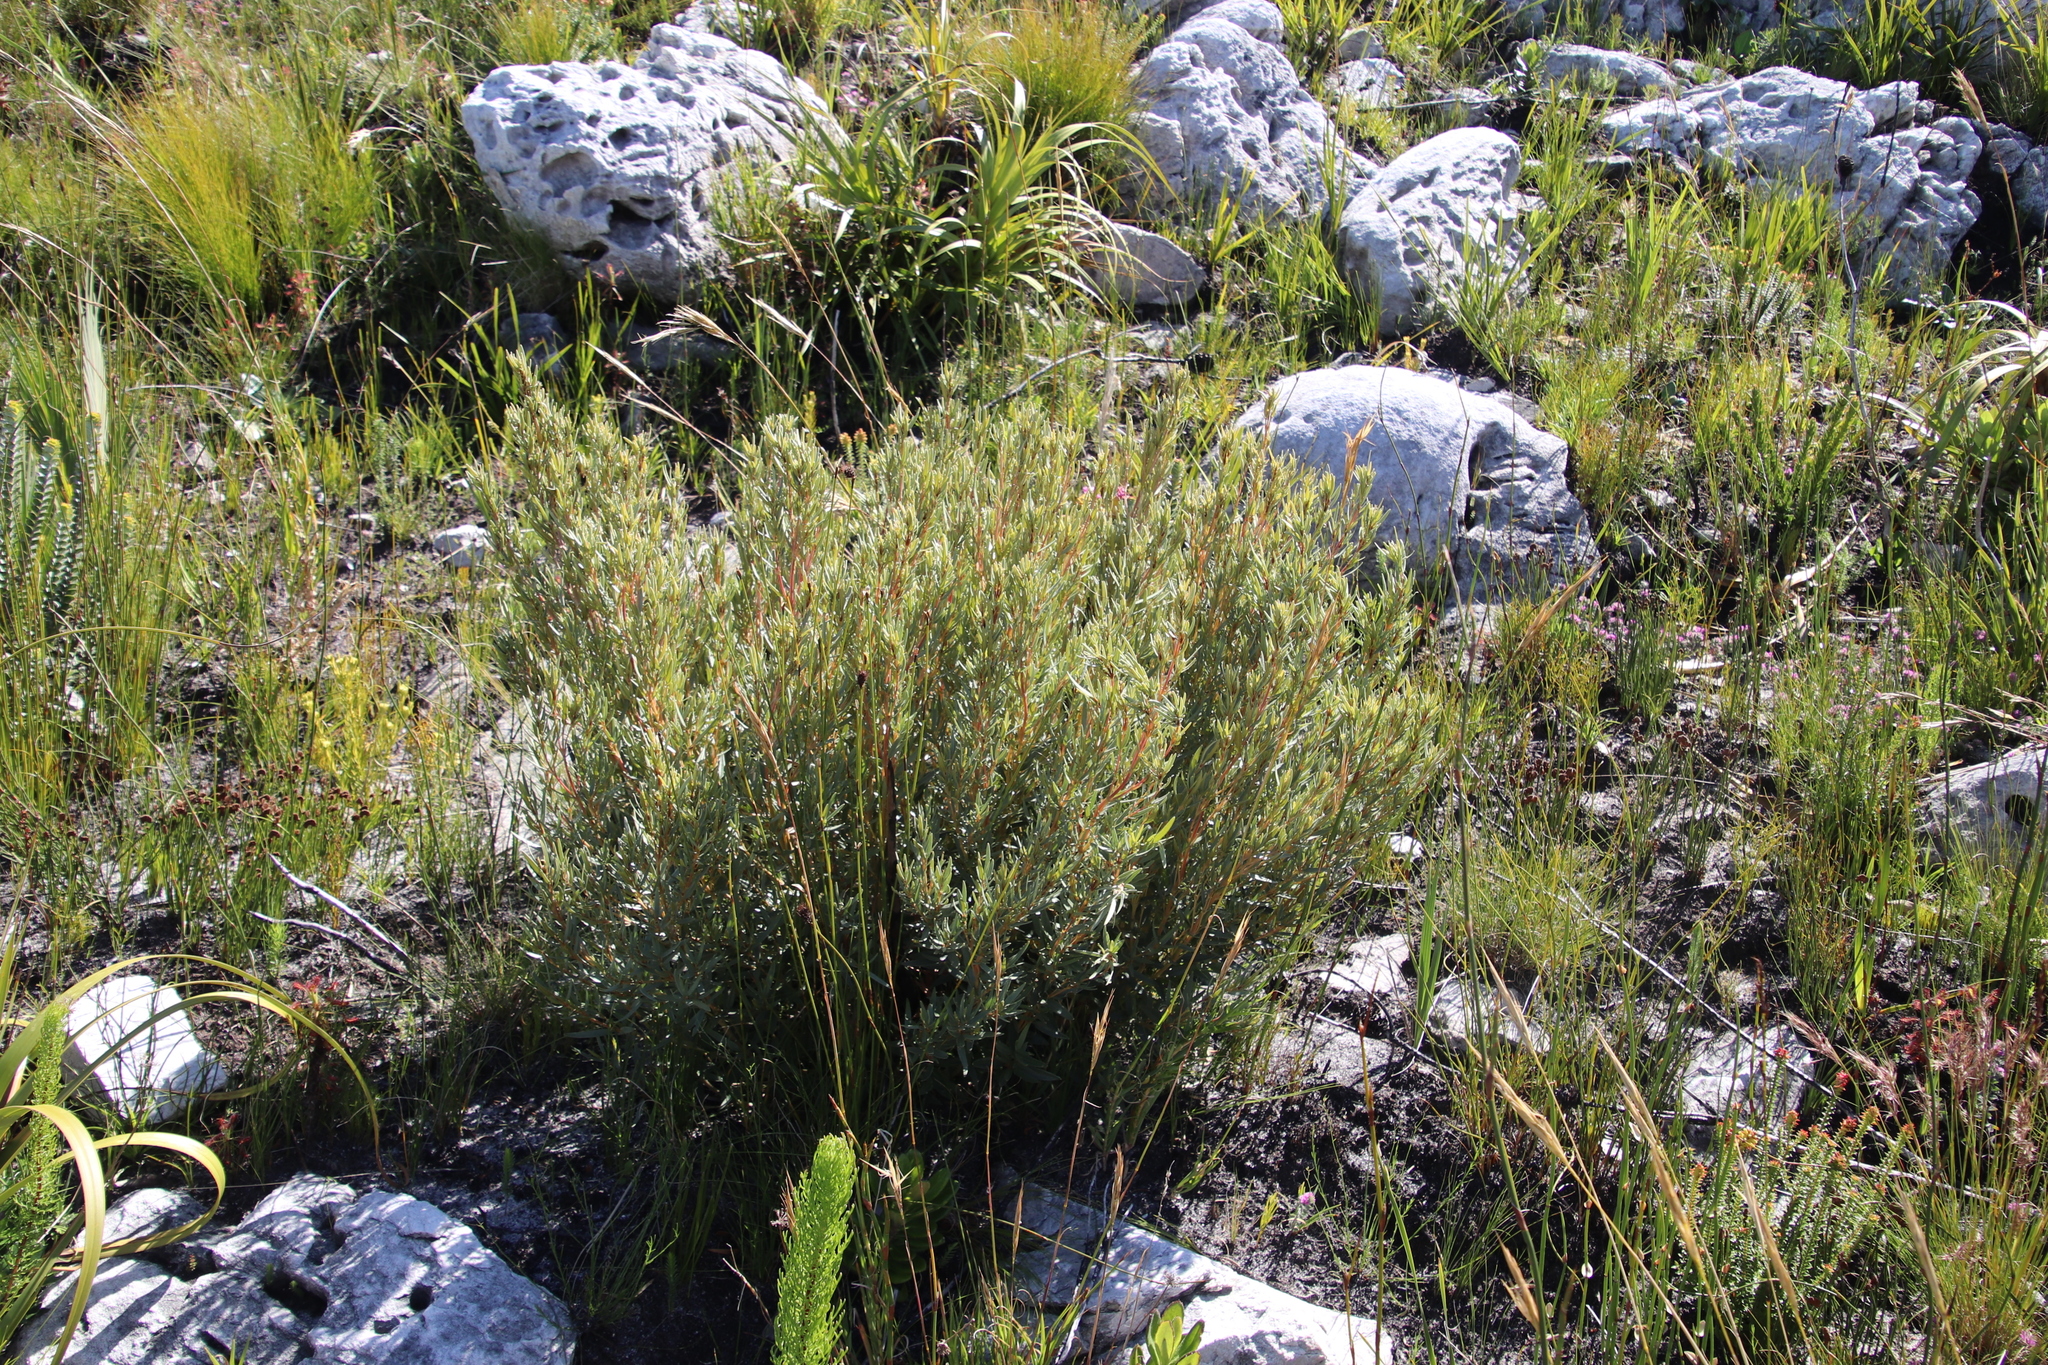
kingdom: Plantae
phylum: Tracheophyta
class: Magnoliopsida
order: Cornales
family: Grubbiaceae
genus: Grubbia
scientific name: Grubbia tomentosa
